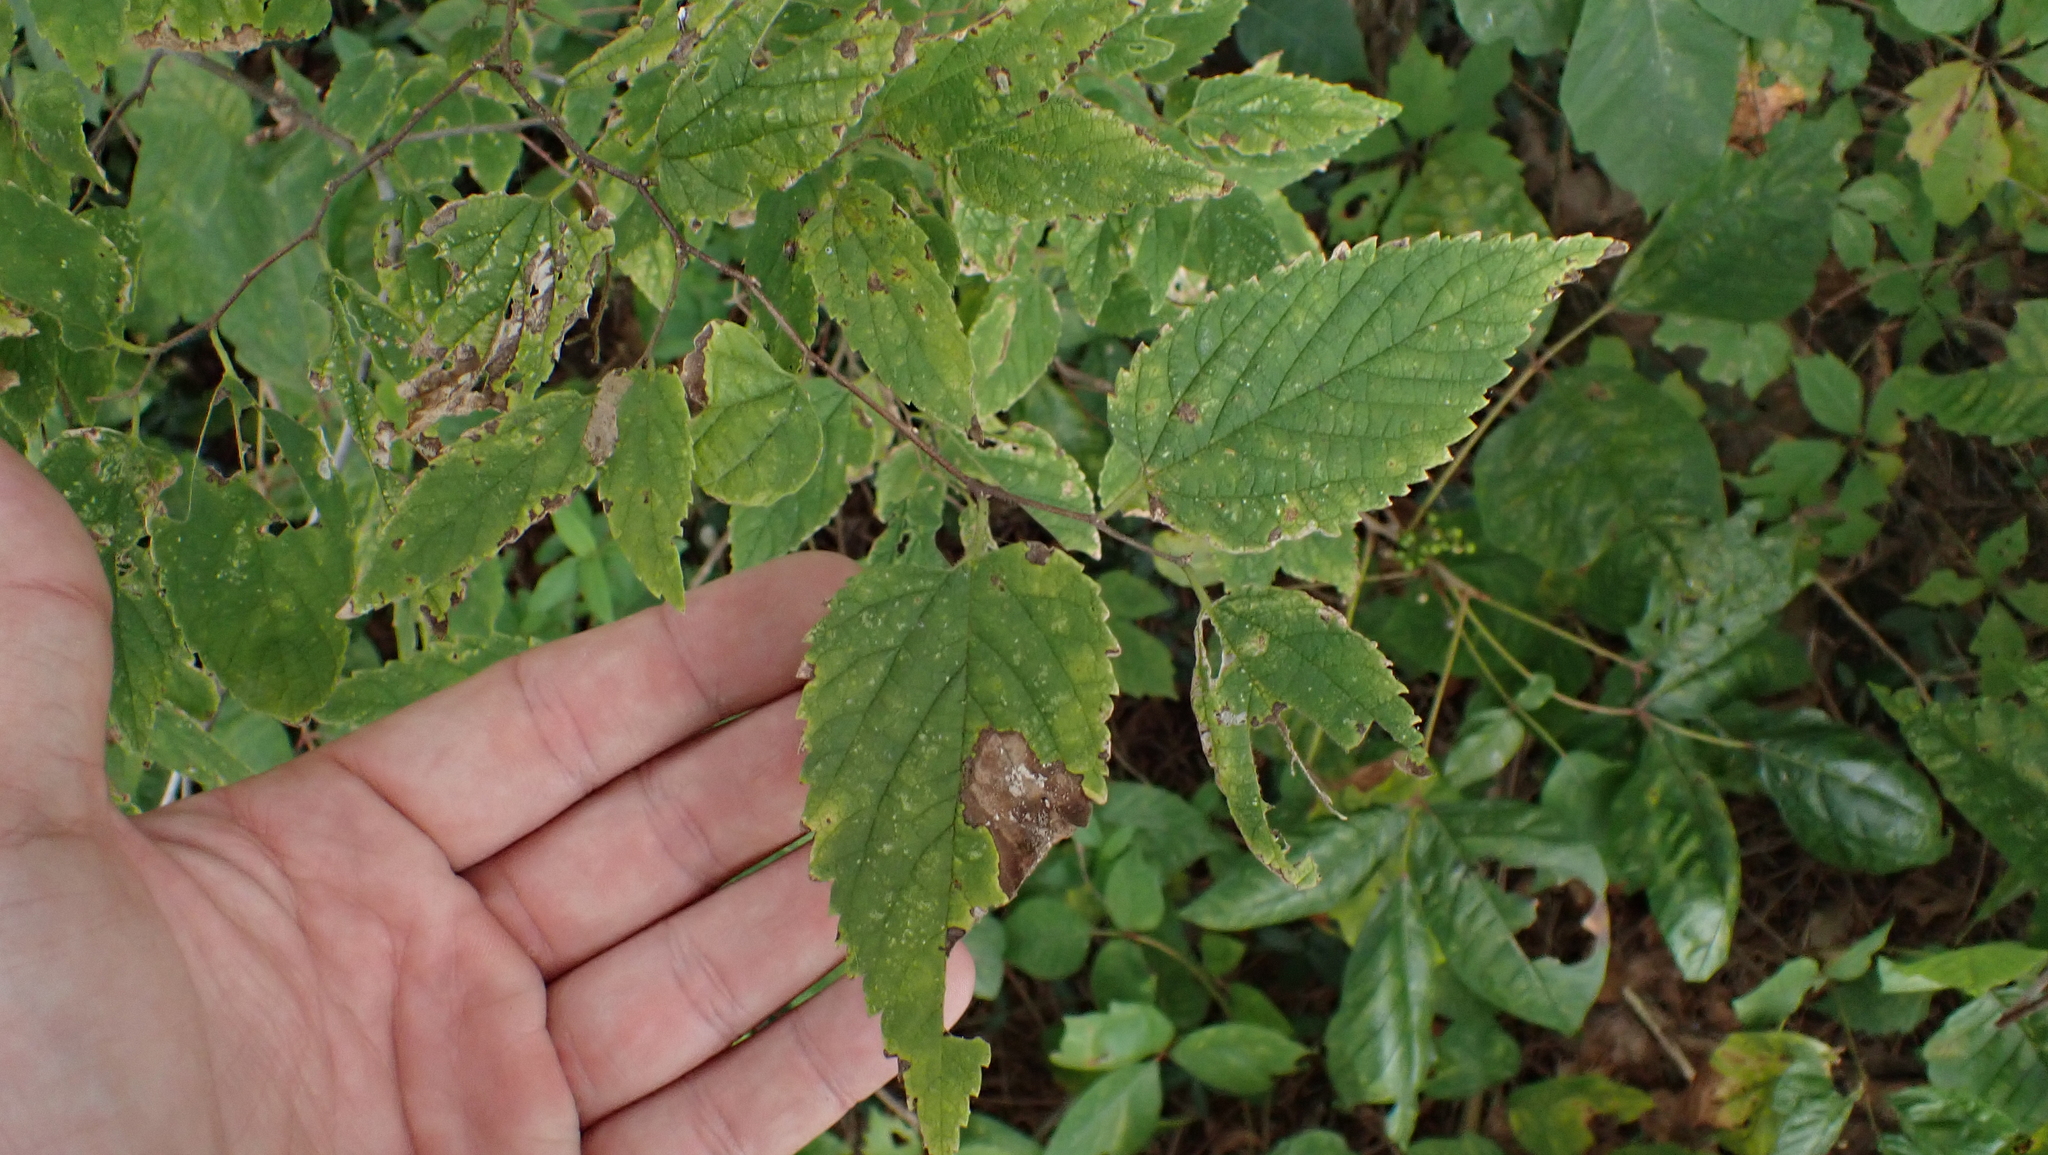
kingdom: Plantae
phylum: Tracheophyta
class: Magnoliopsida
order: Rosales
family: Cannabaceae
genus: Celtis
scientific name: Celtis occidentalis
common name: Common hackberry
